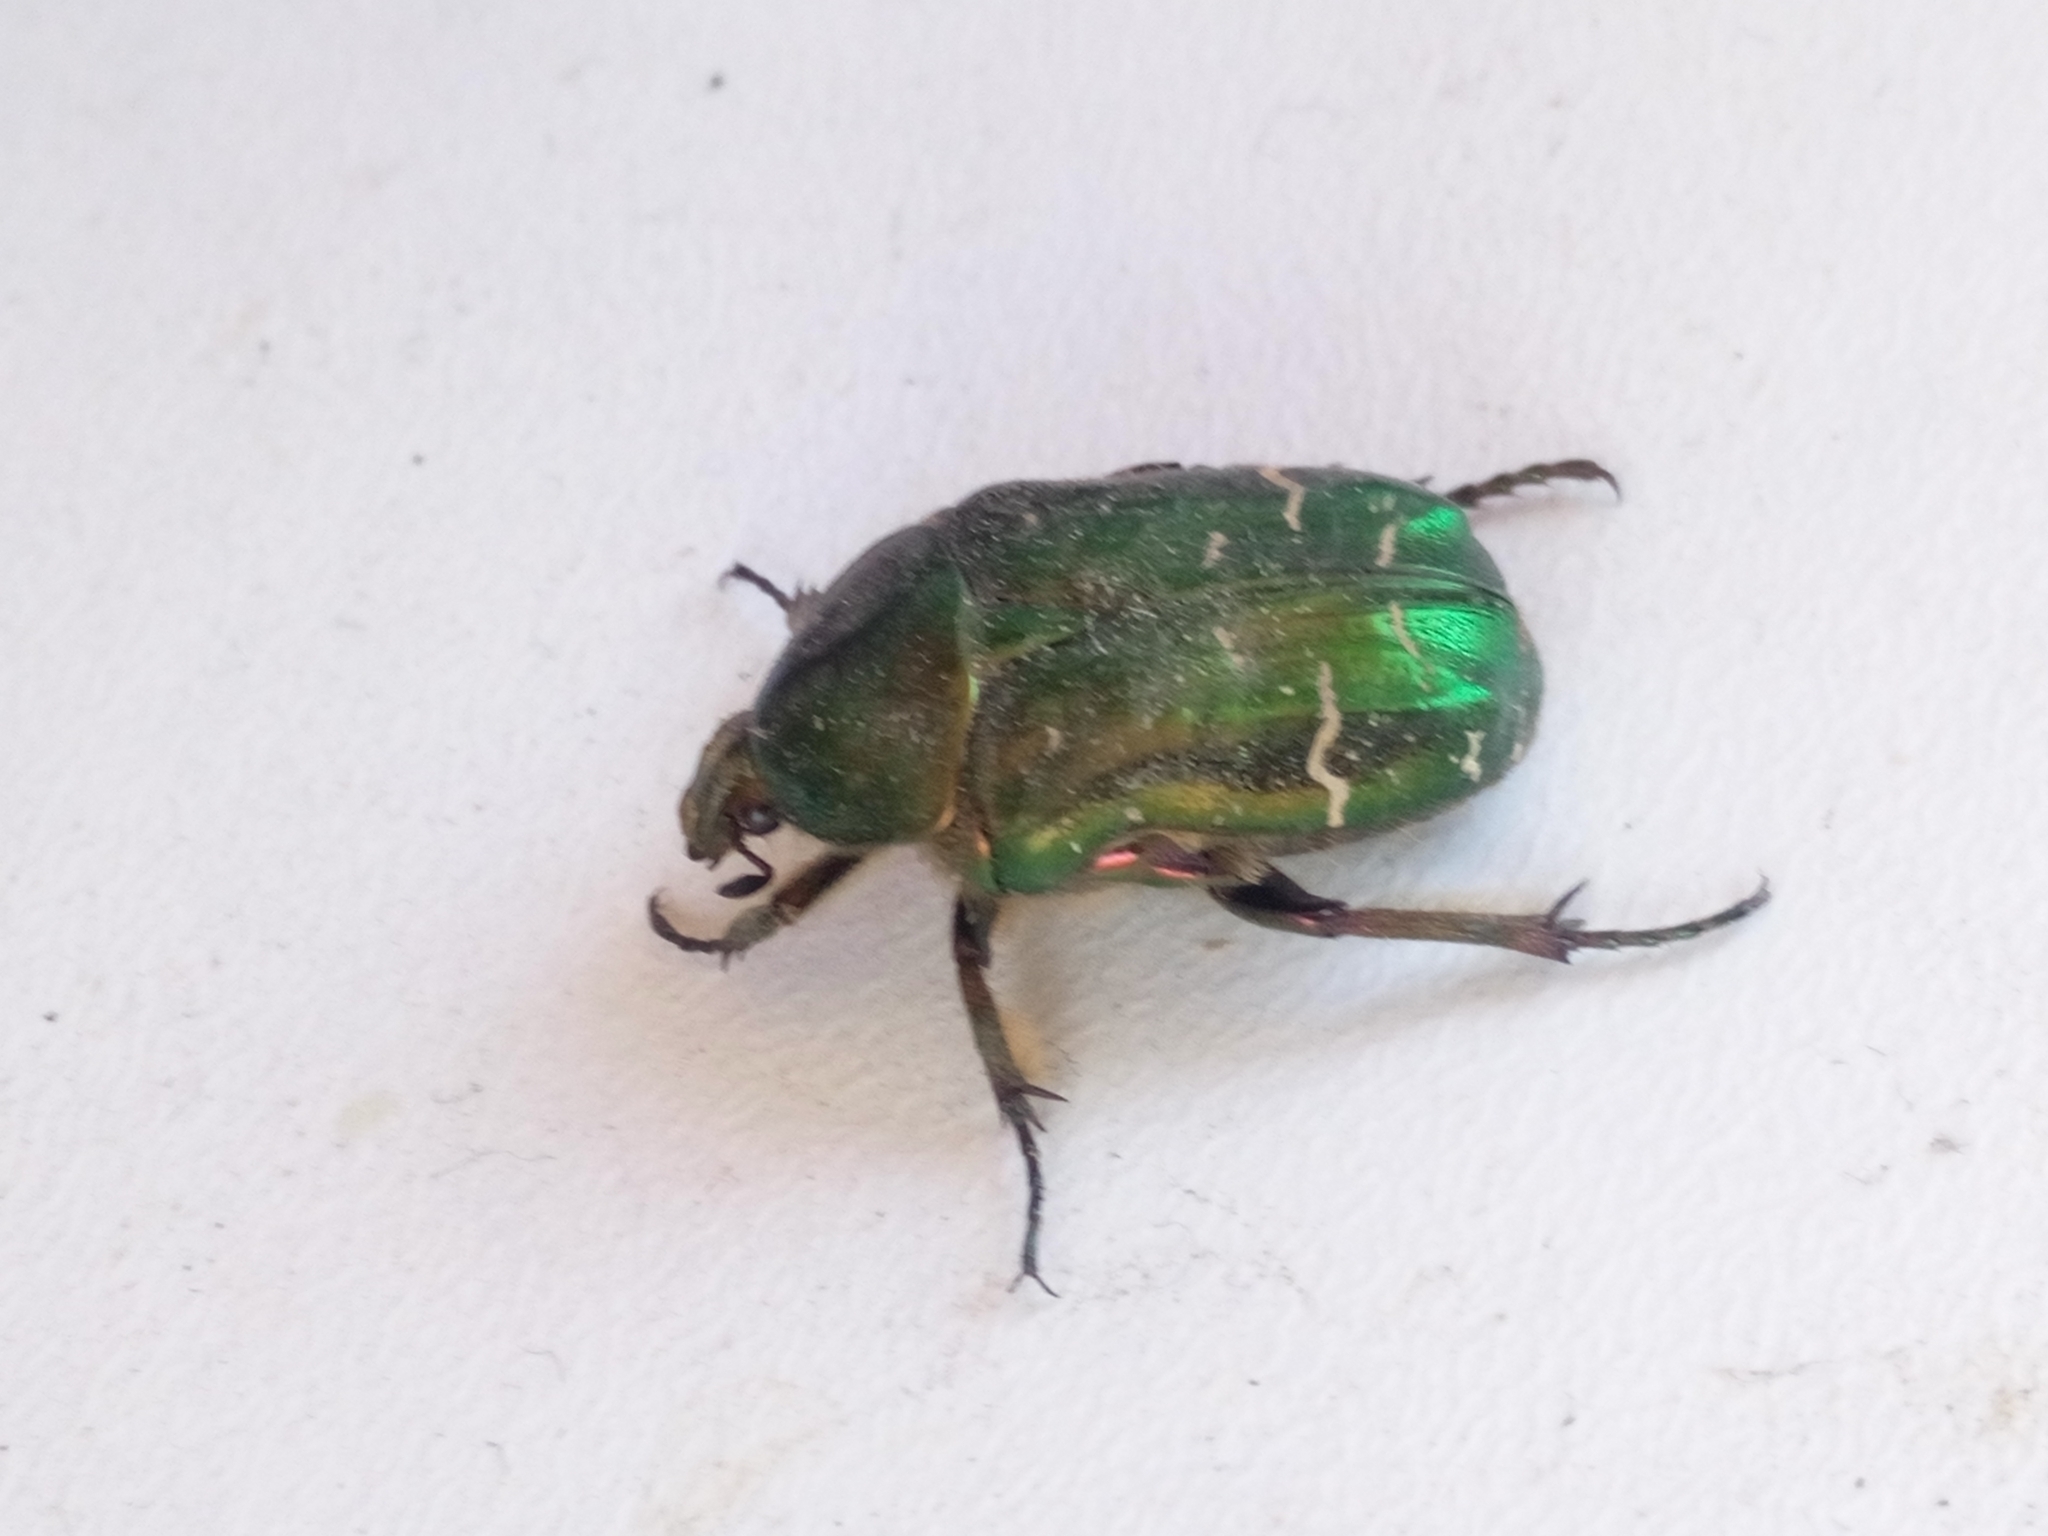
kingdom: Animalia
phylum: Arthropoda
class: Insecta
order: Coleoptera
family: Scarabaeidae
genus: Cetonia
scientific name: Cetonia aurata
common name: Rose chafer
